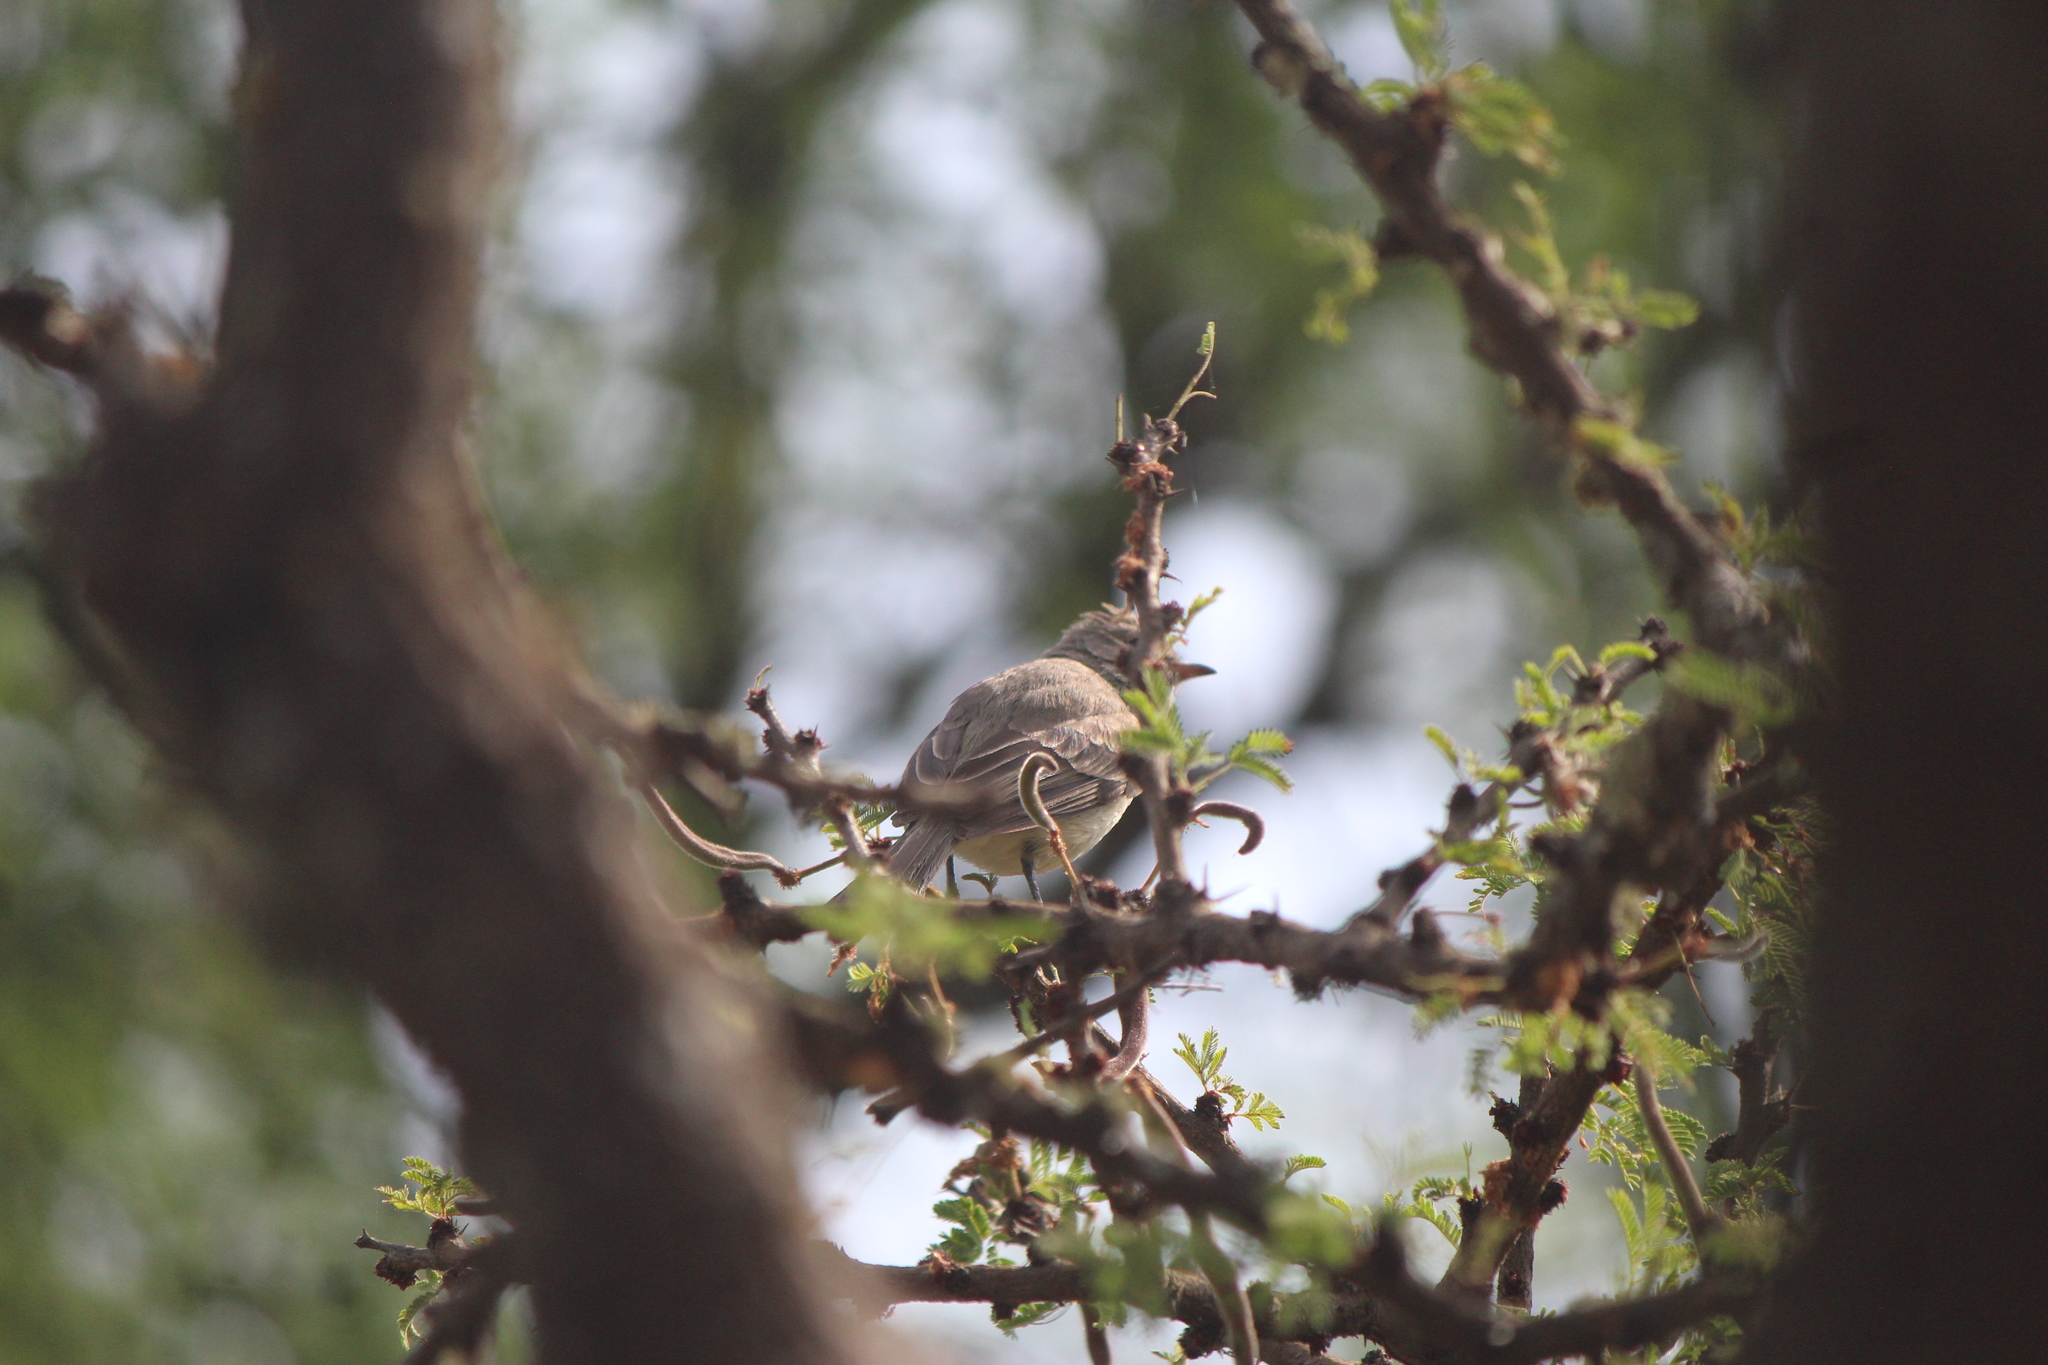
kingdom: Animalia
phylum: Chordata
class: Aves
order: Passeriformes
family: Tyrannidae
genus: Camptostoma
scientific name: Camptostoma imberbe
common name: Northern beardless-tyrannulet
